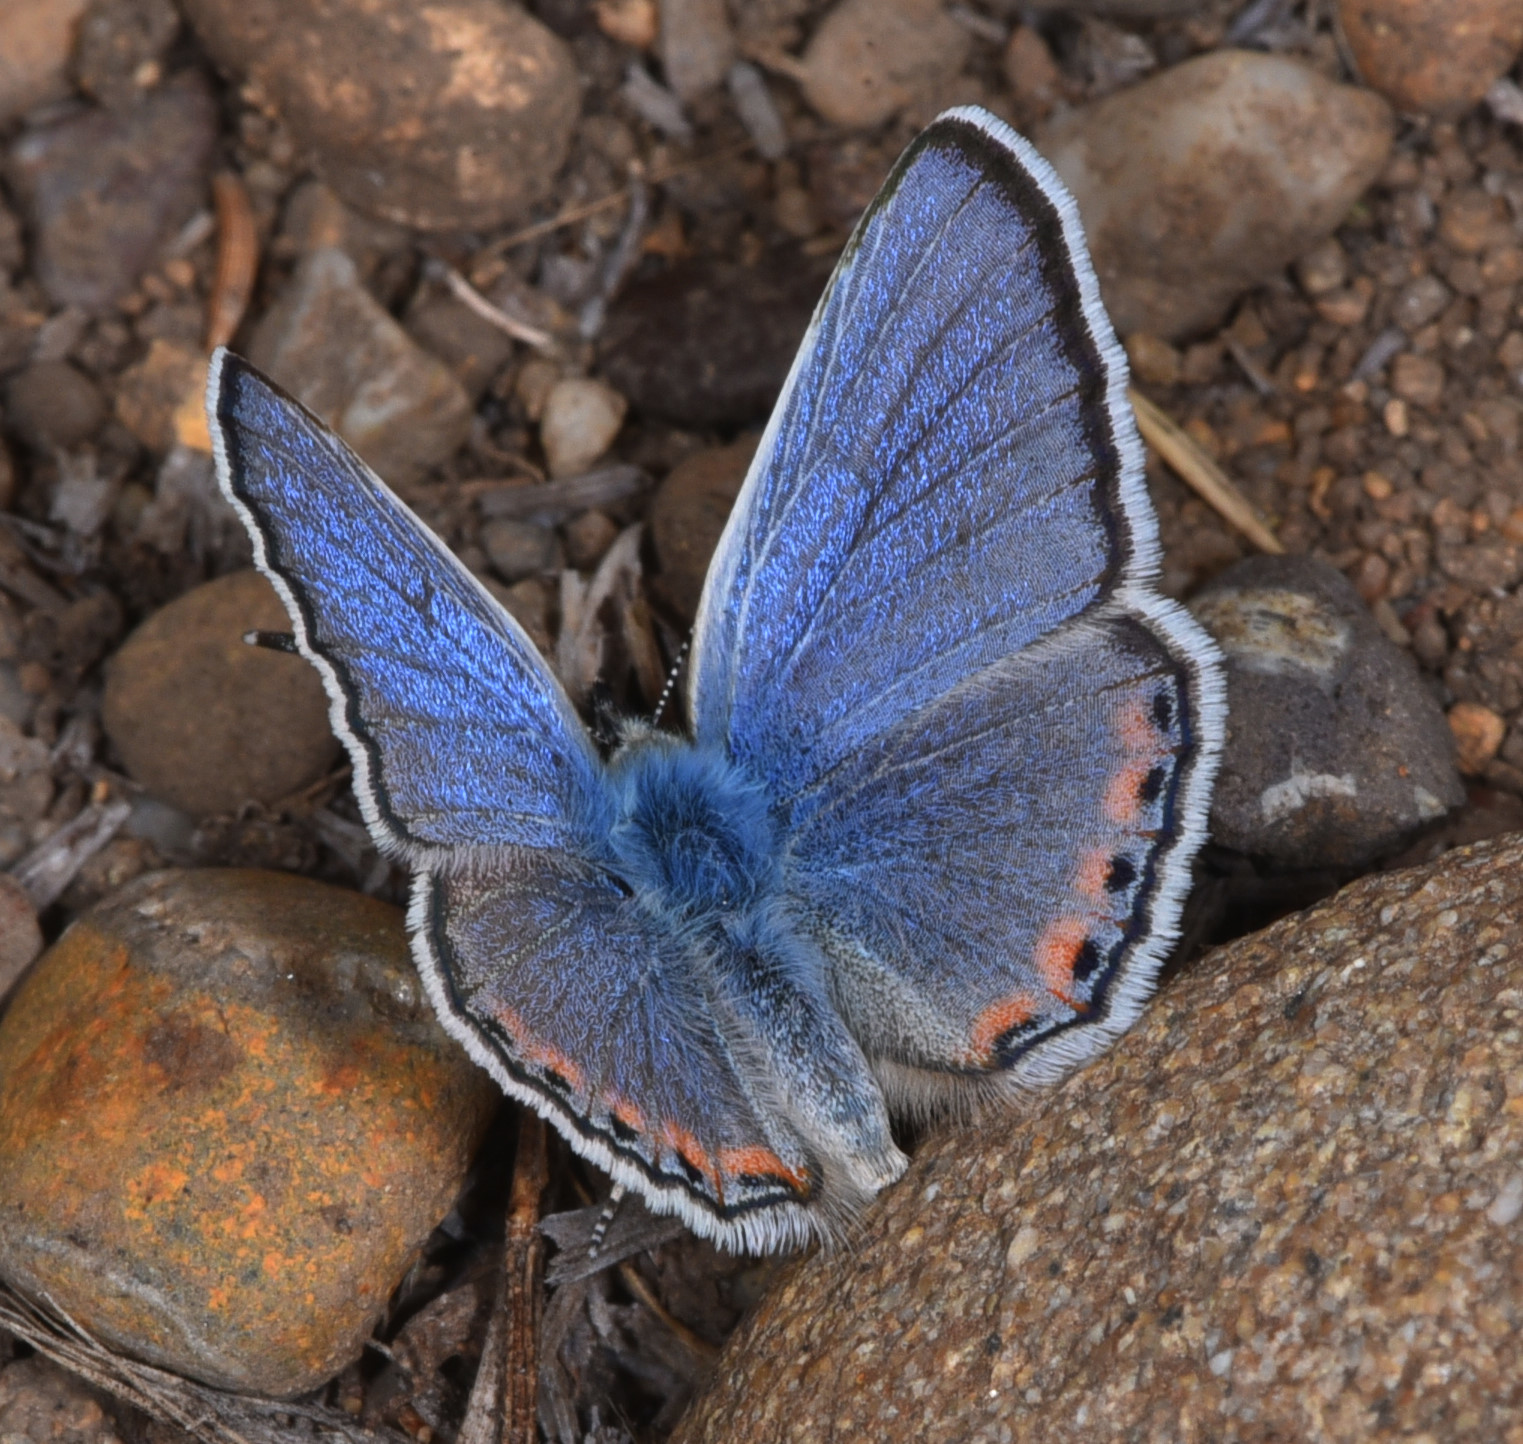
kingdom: Animalia
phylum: Arthropoda
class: Insecta
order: Lepidoptera
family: Lycaenidae
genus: Icaricia
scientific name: Icaricia acmon
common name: Acmon blue
